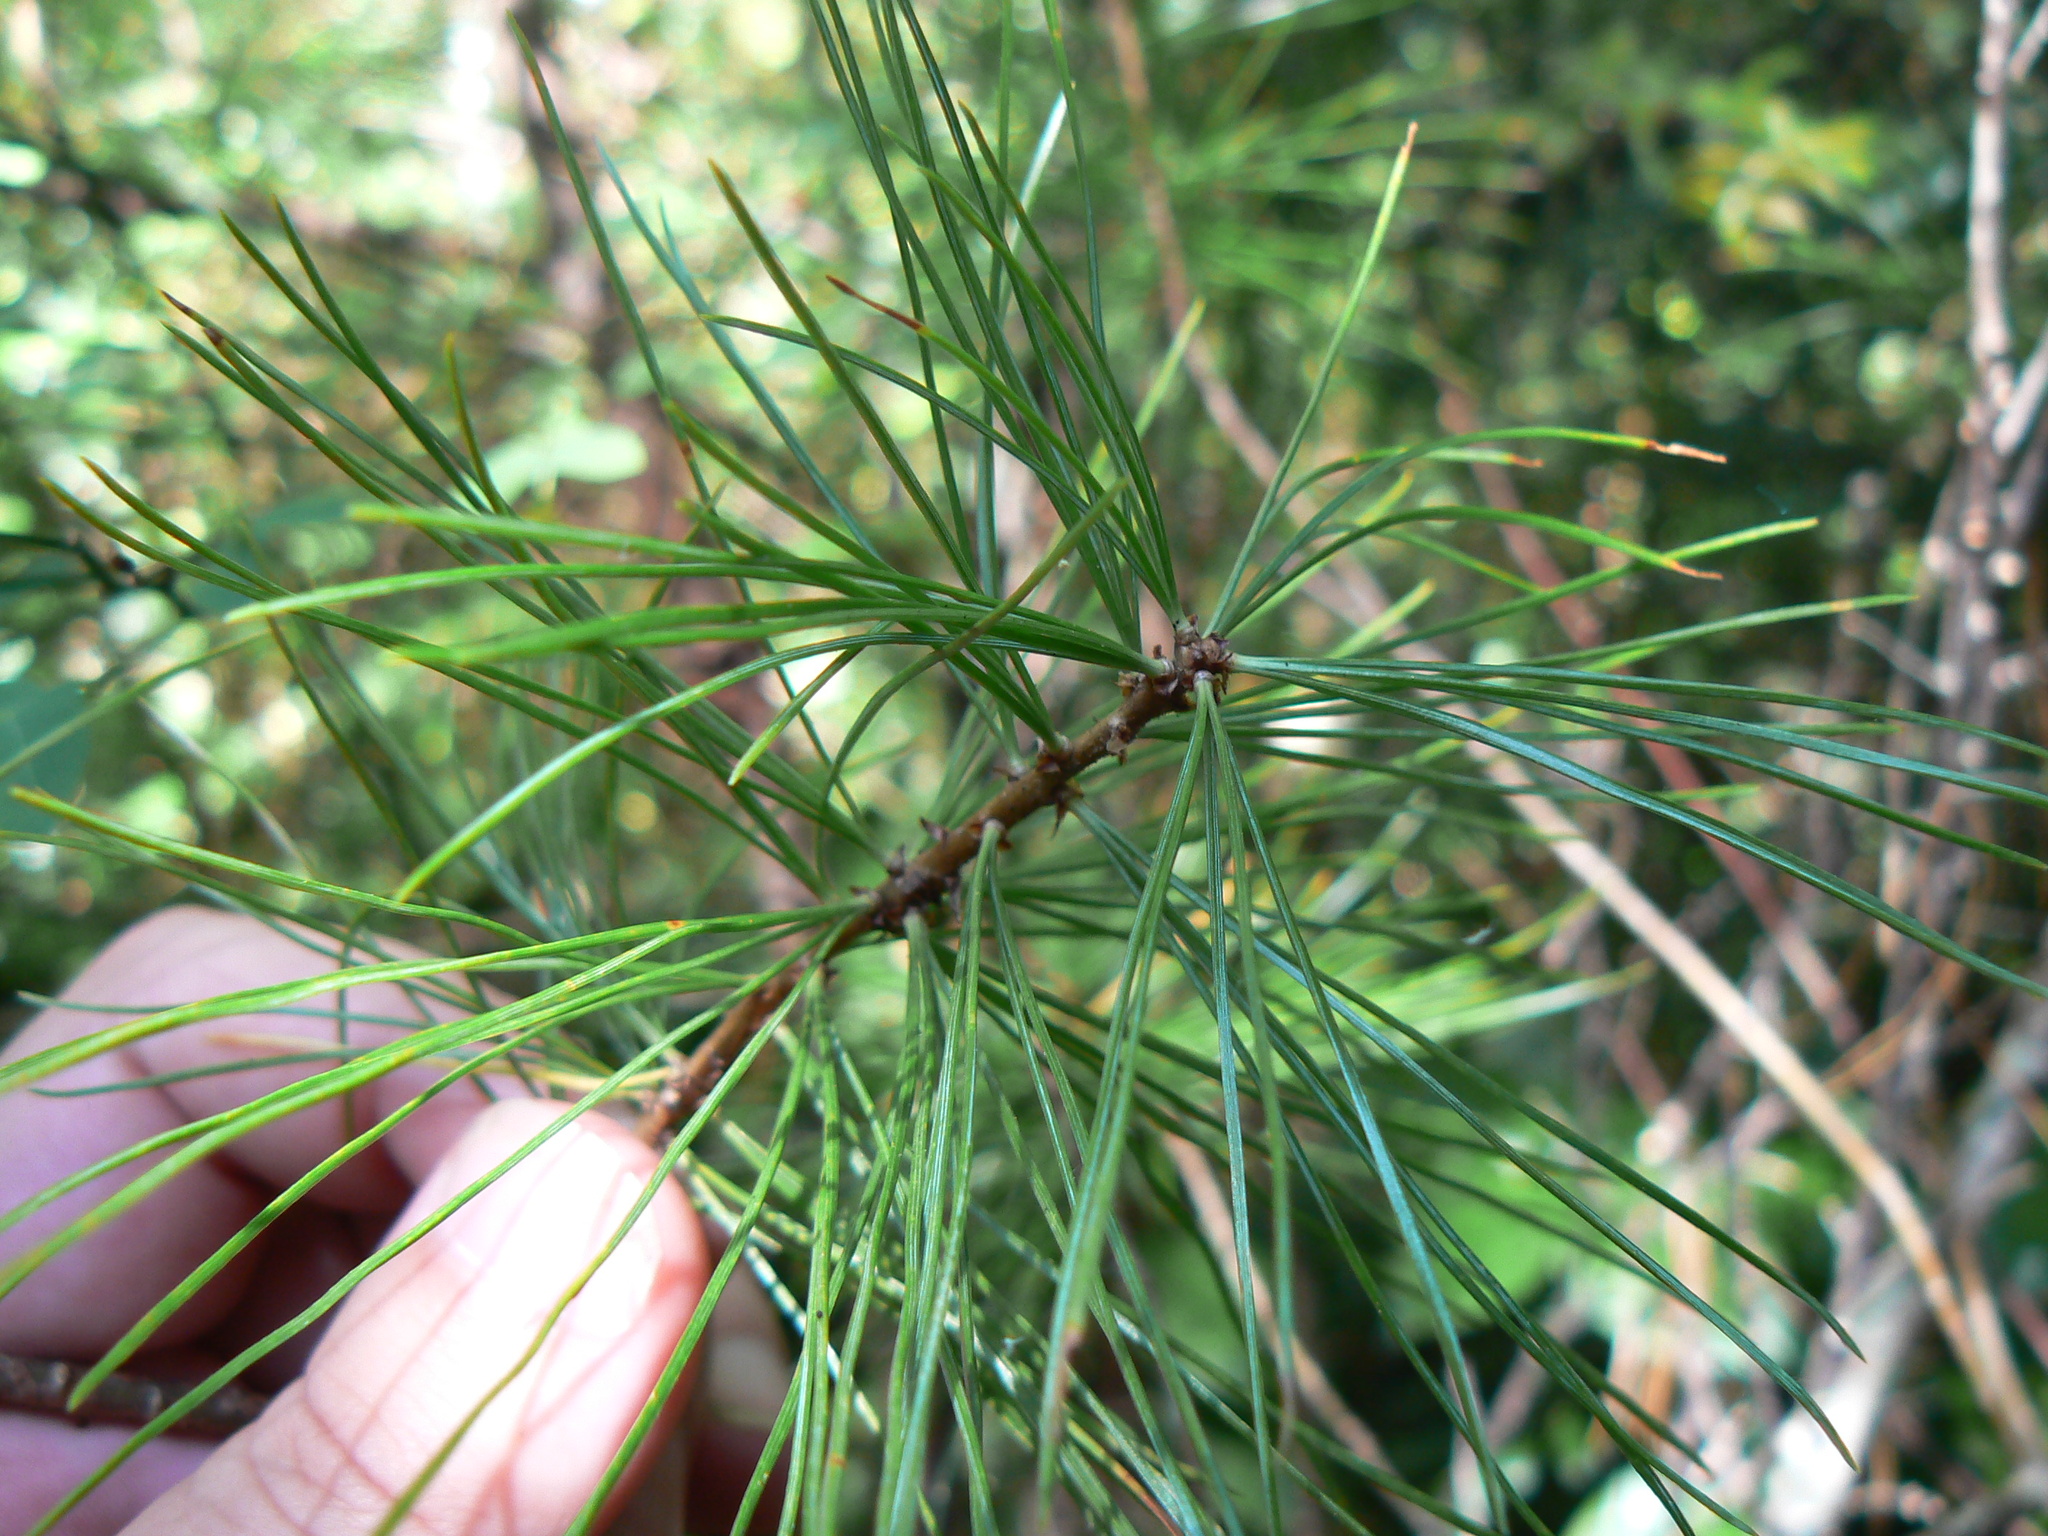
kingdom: Plantae
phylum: Tracheophyta
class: Pinopsida
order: Pinales
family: Pinaceae
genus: Pinus
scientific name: Pinus monticola
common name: Western white pine
